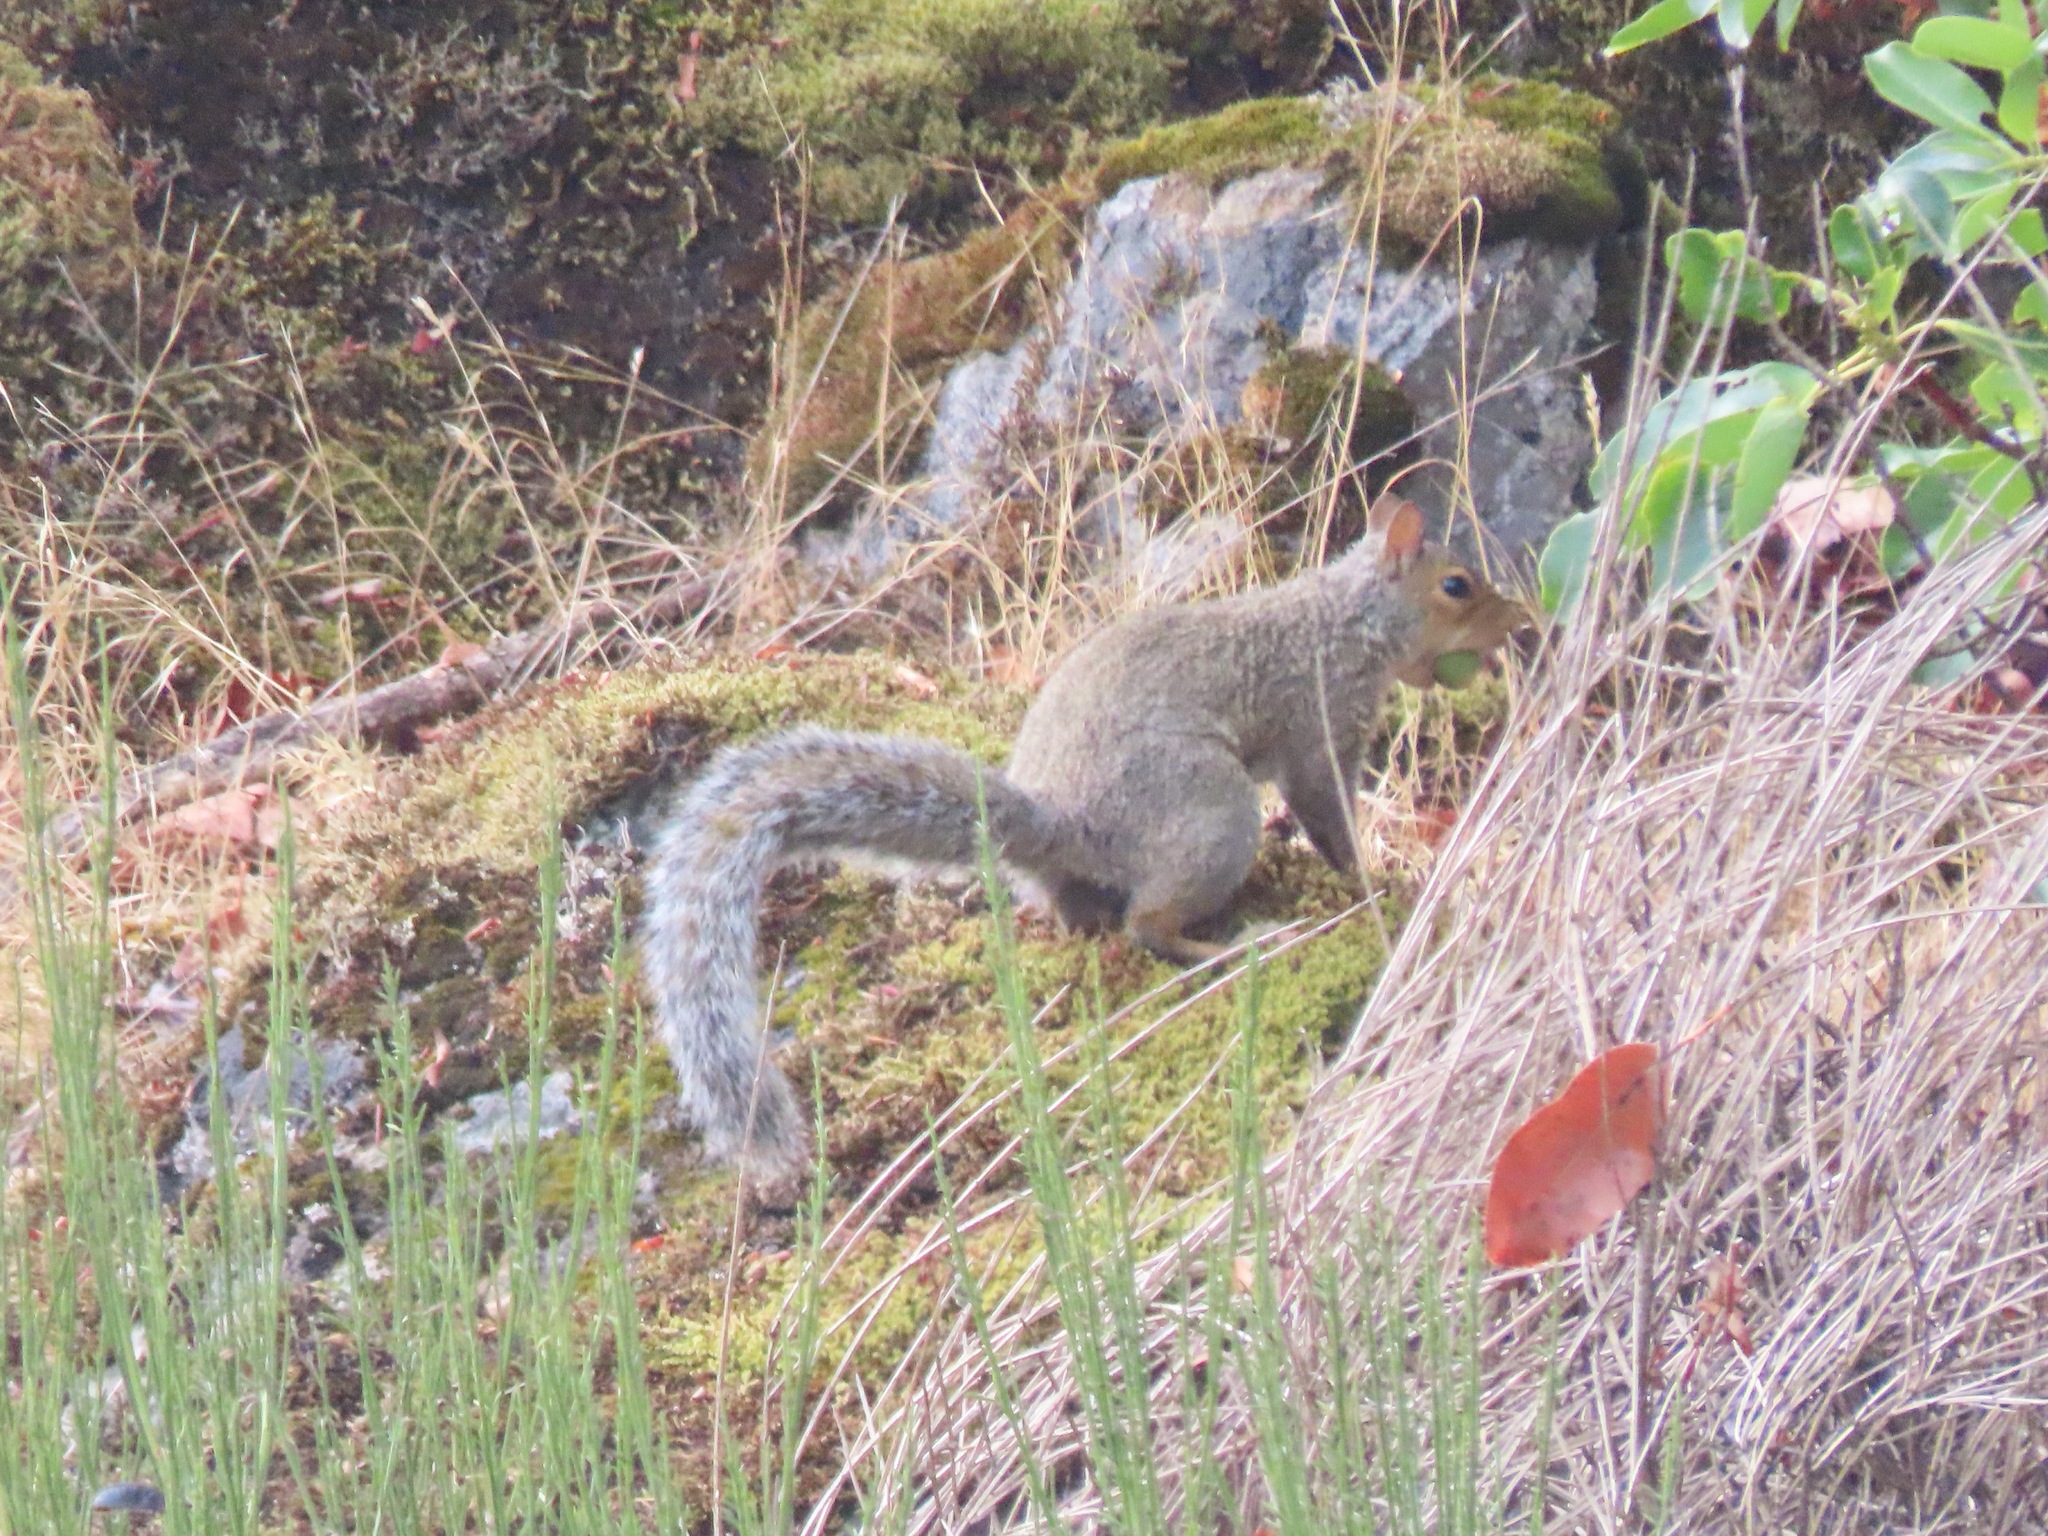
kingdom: Animalia
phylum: Chordata
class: Mammalia
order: Rodentia
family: Sciuridae
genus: Sciurus
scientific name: Sciurus carolinensis
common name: Eastern gray squirrel
